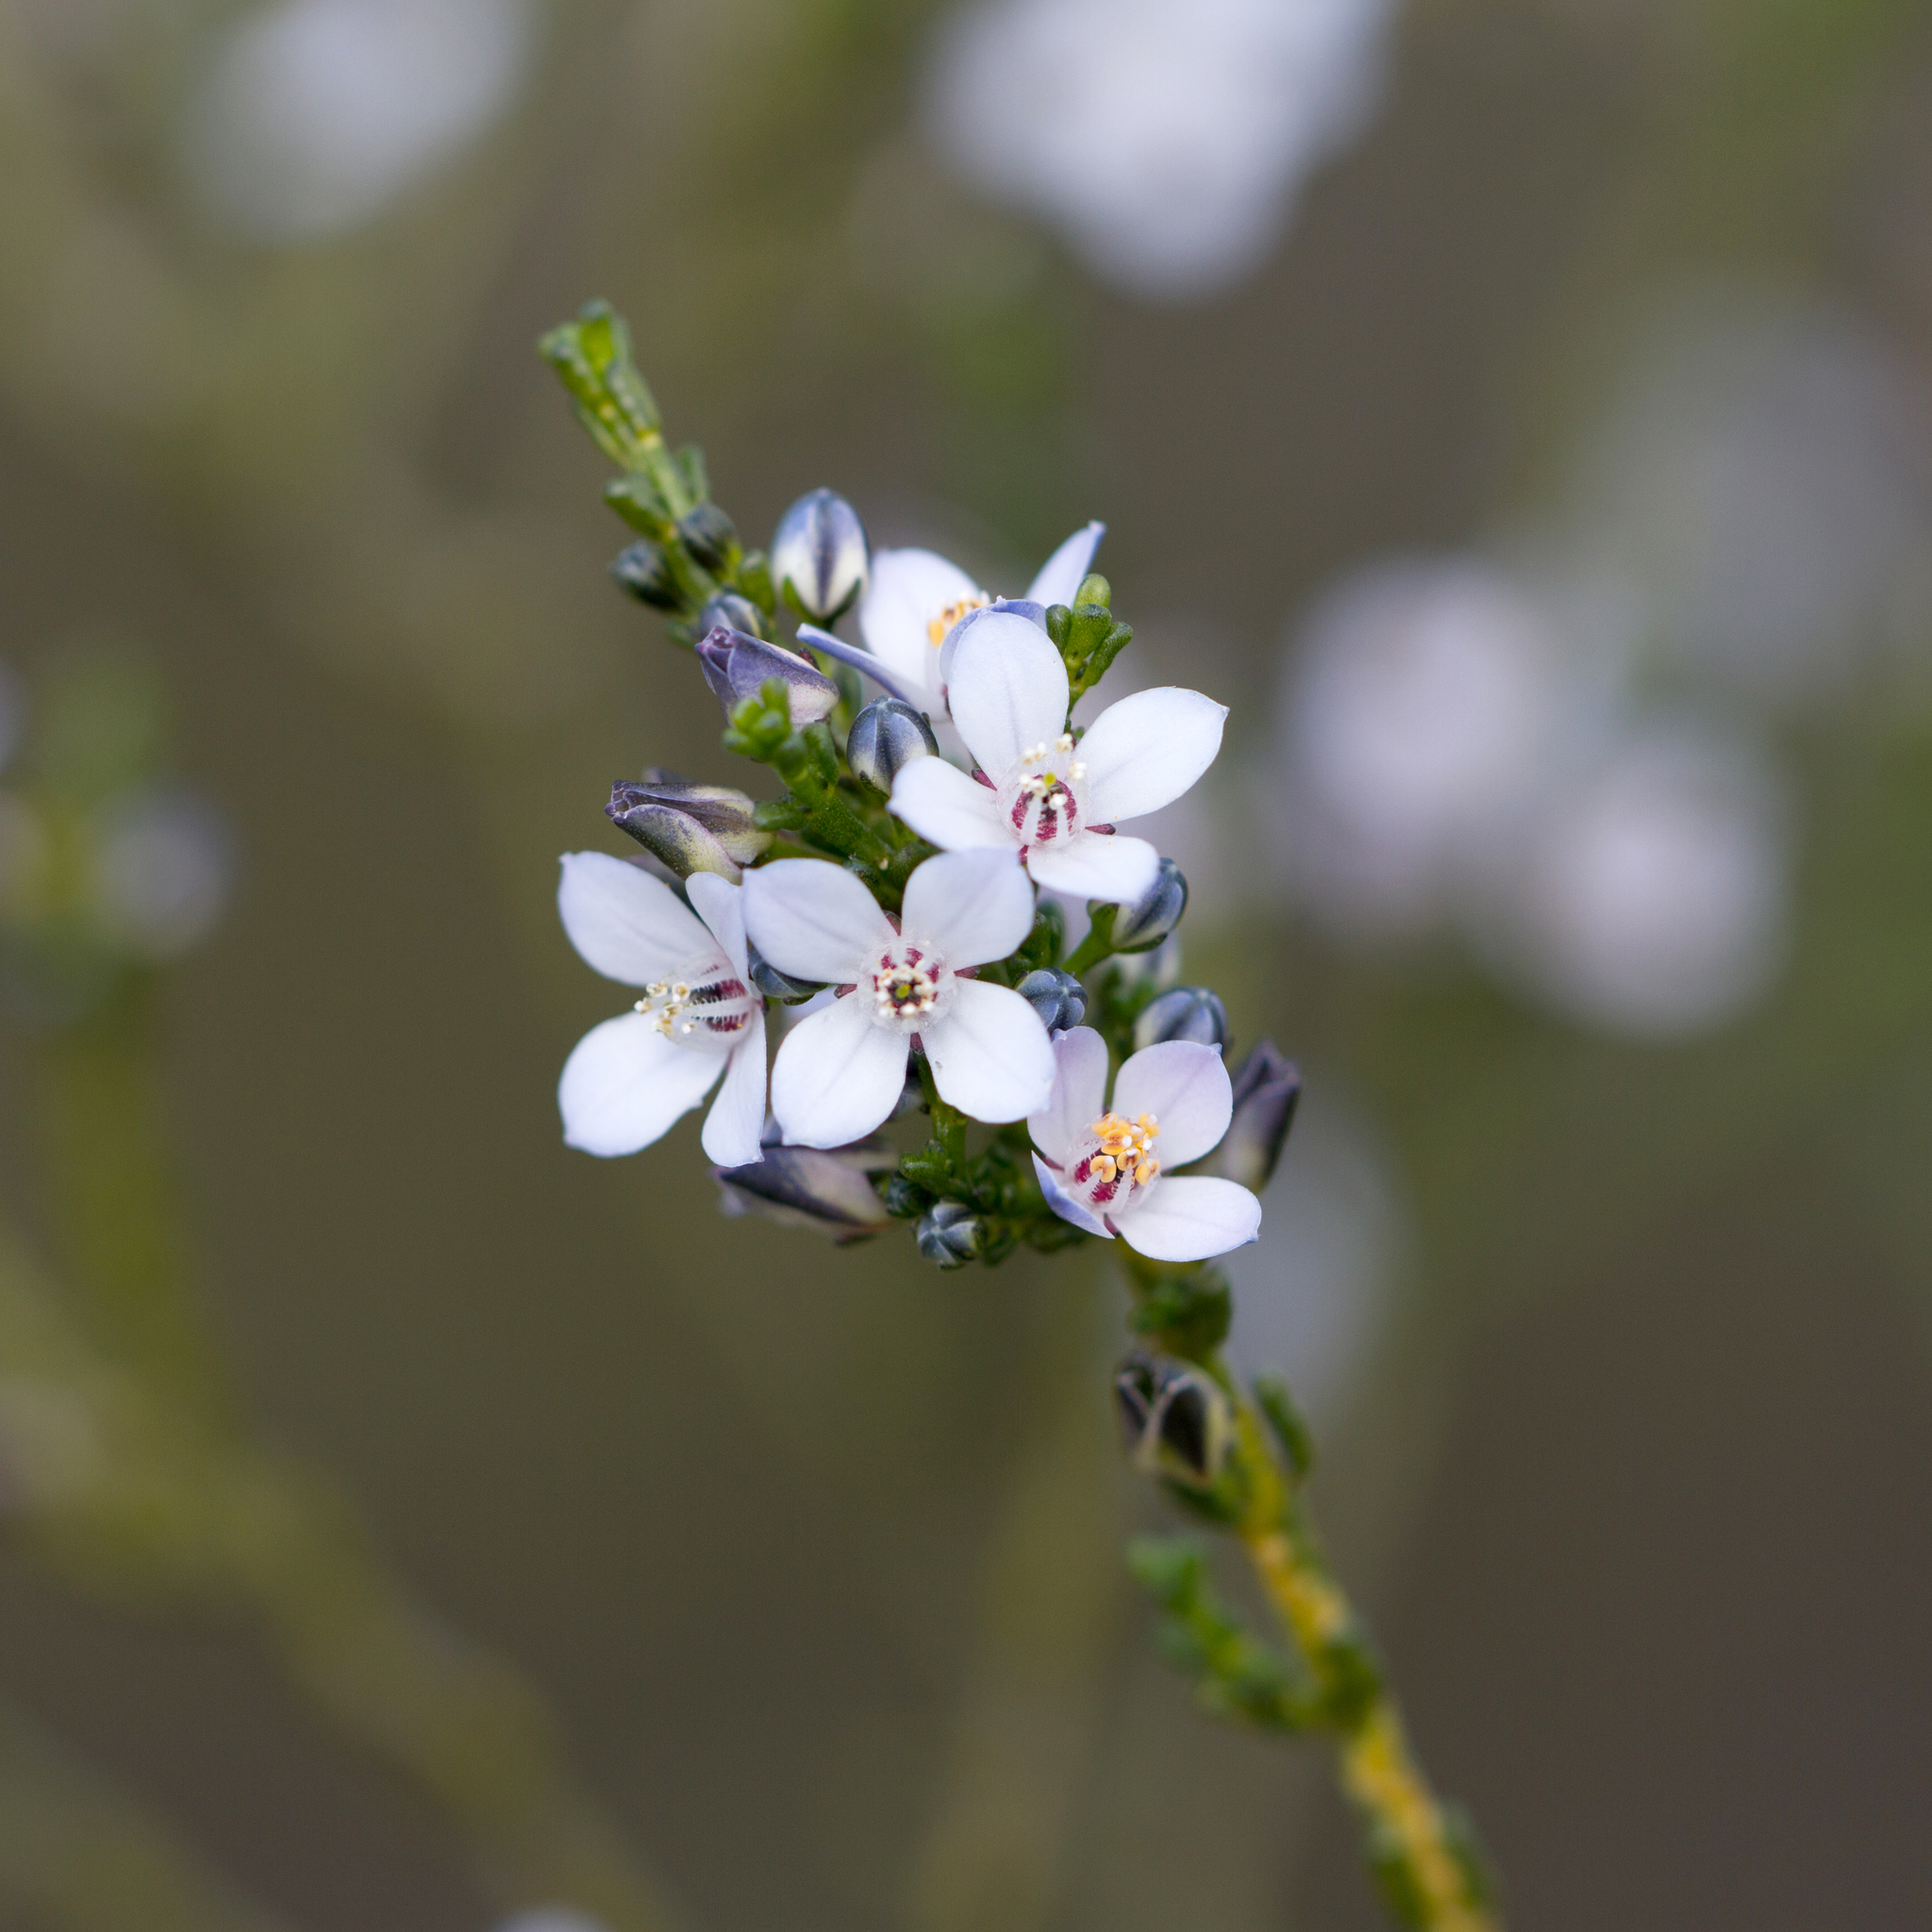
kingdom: Plantae
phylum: Tracheophyta
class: Magnoliopsida
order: Sapindales
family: Rutaceae
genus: Cyanothamnus
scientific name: Cyanothamnus coerulescens
